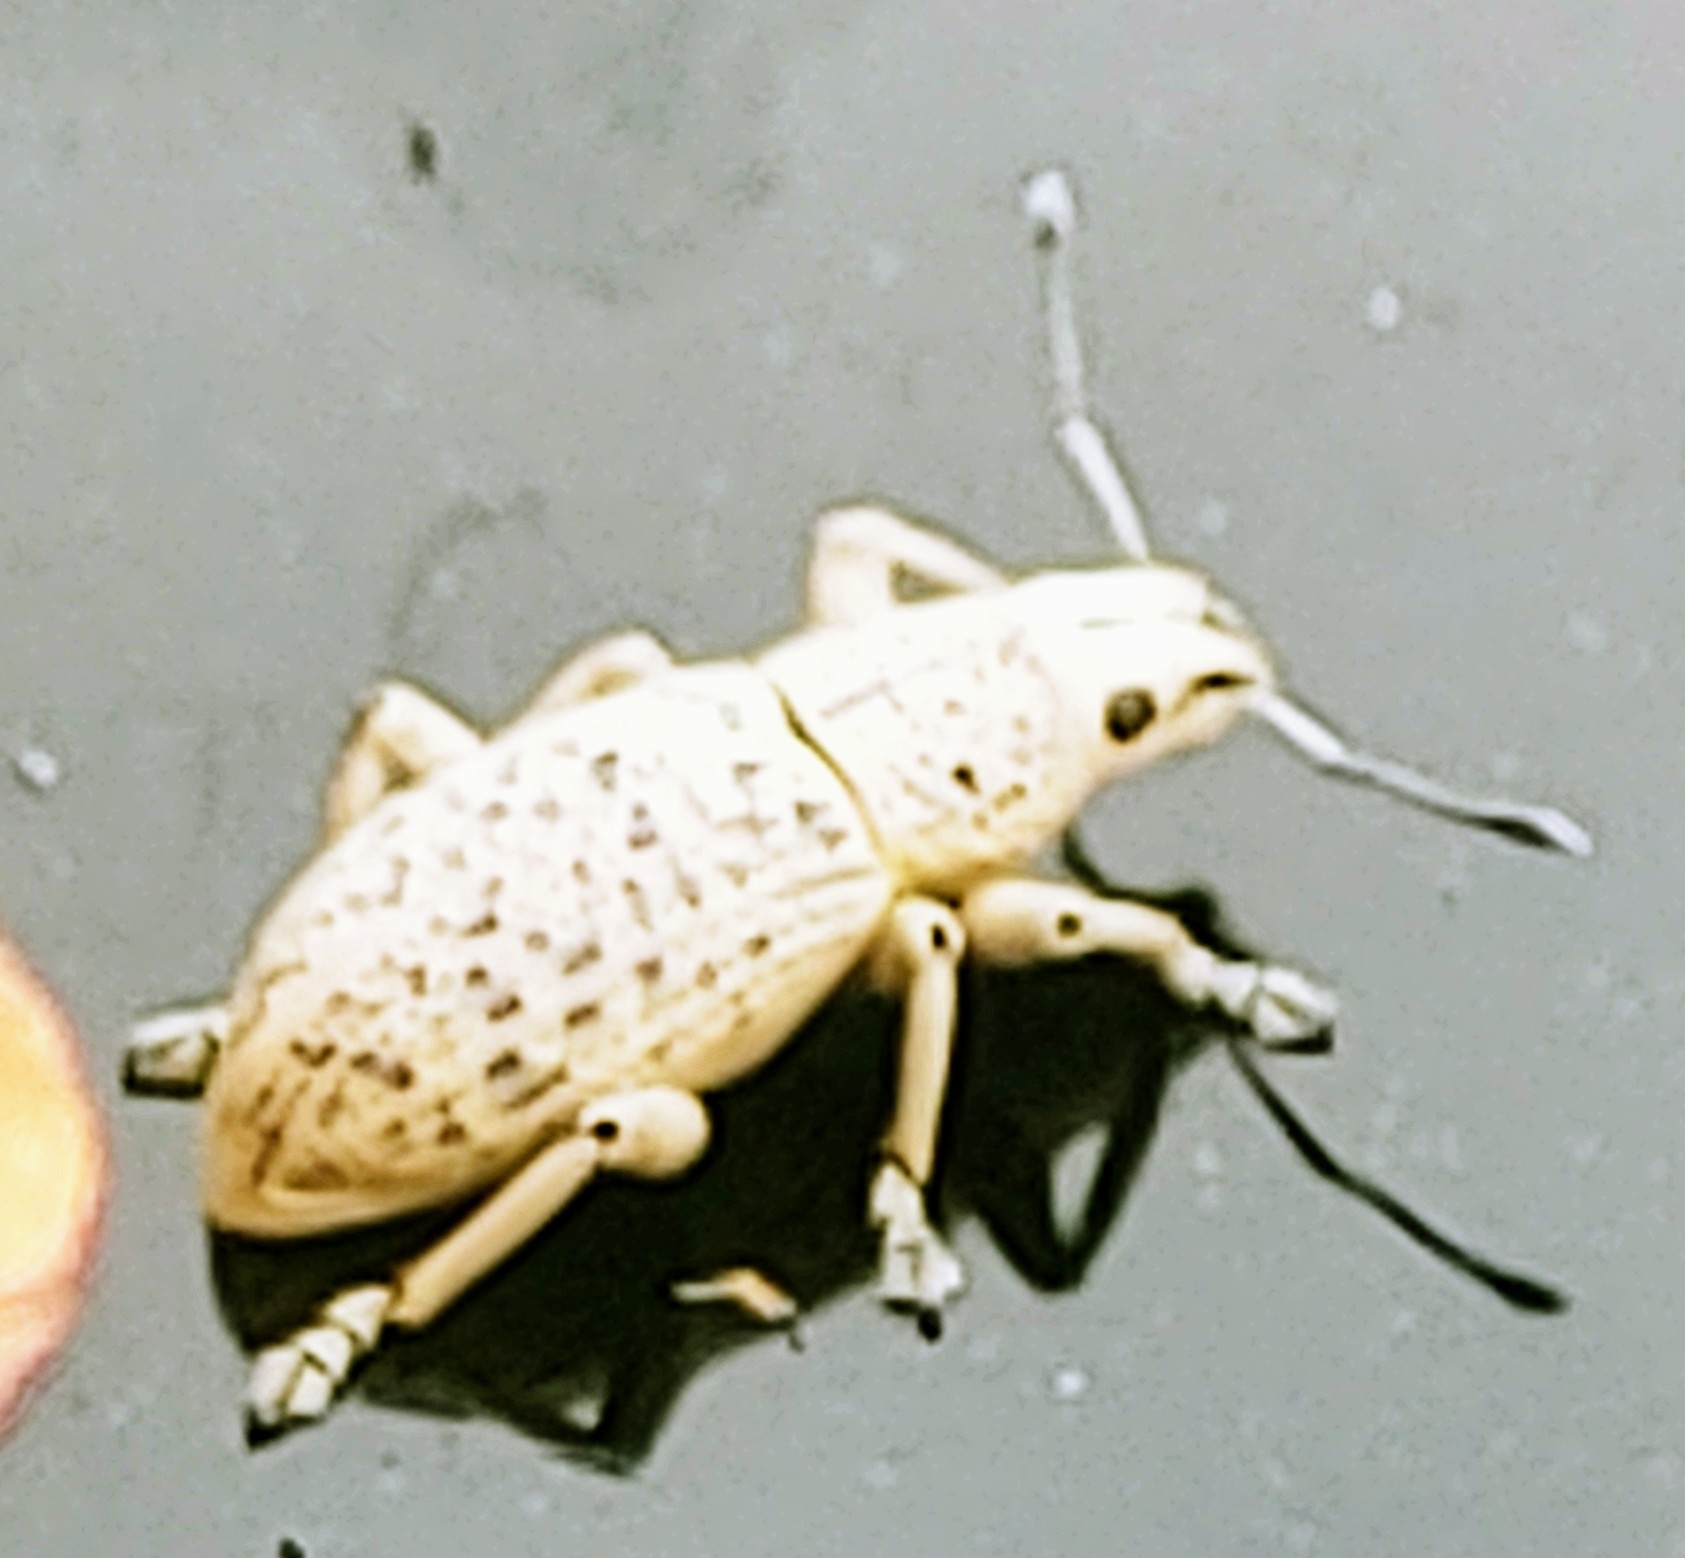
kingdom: Animalia
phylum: Arthropoda
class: Insecta
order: Coleoptera
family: Curculionidae
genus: Artipus
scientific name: Artipus floridanus
